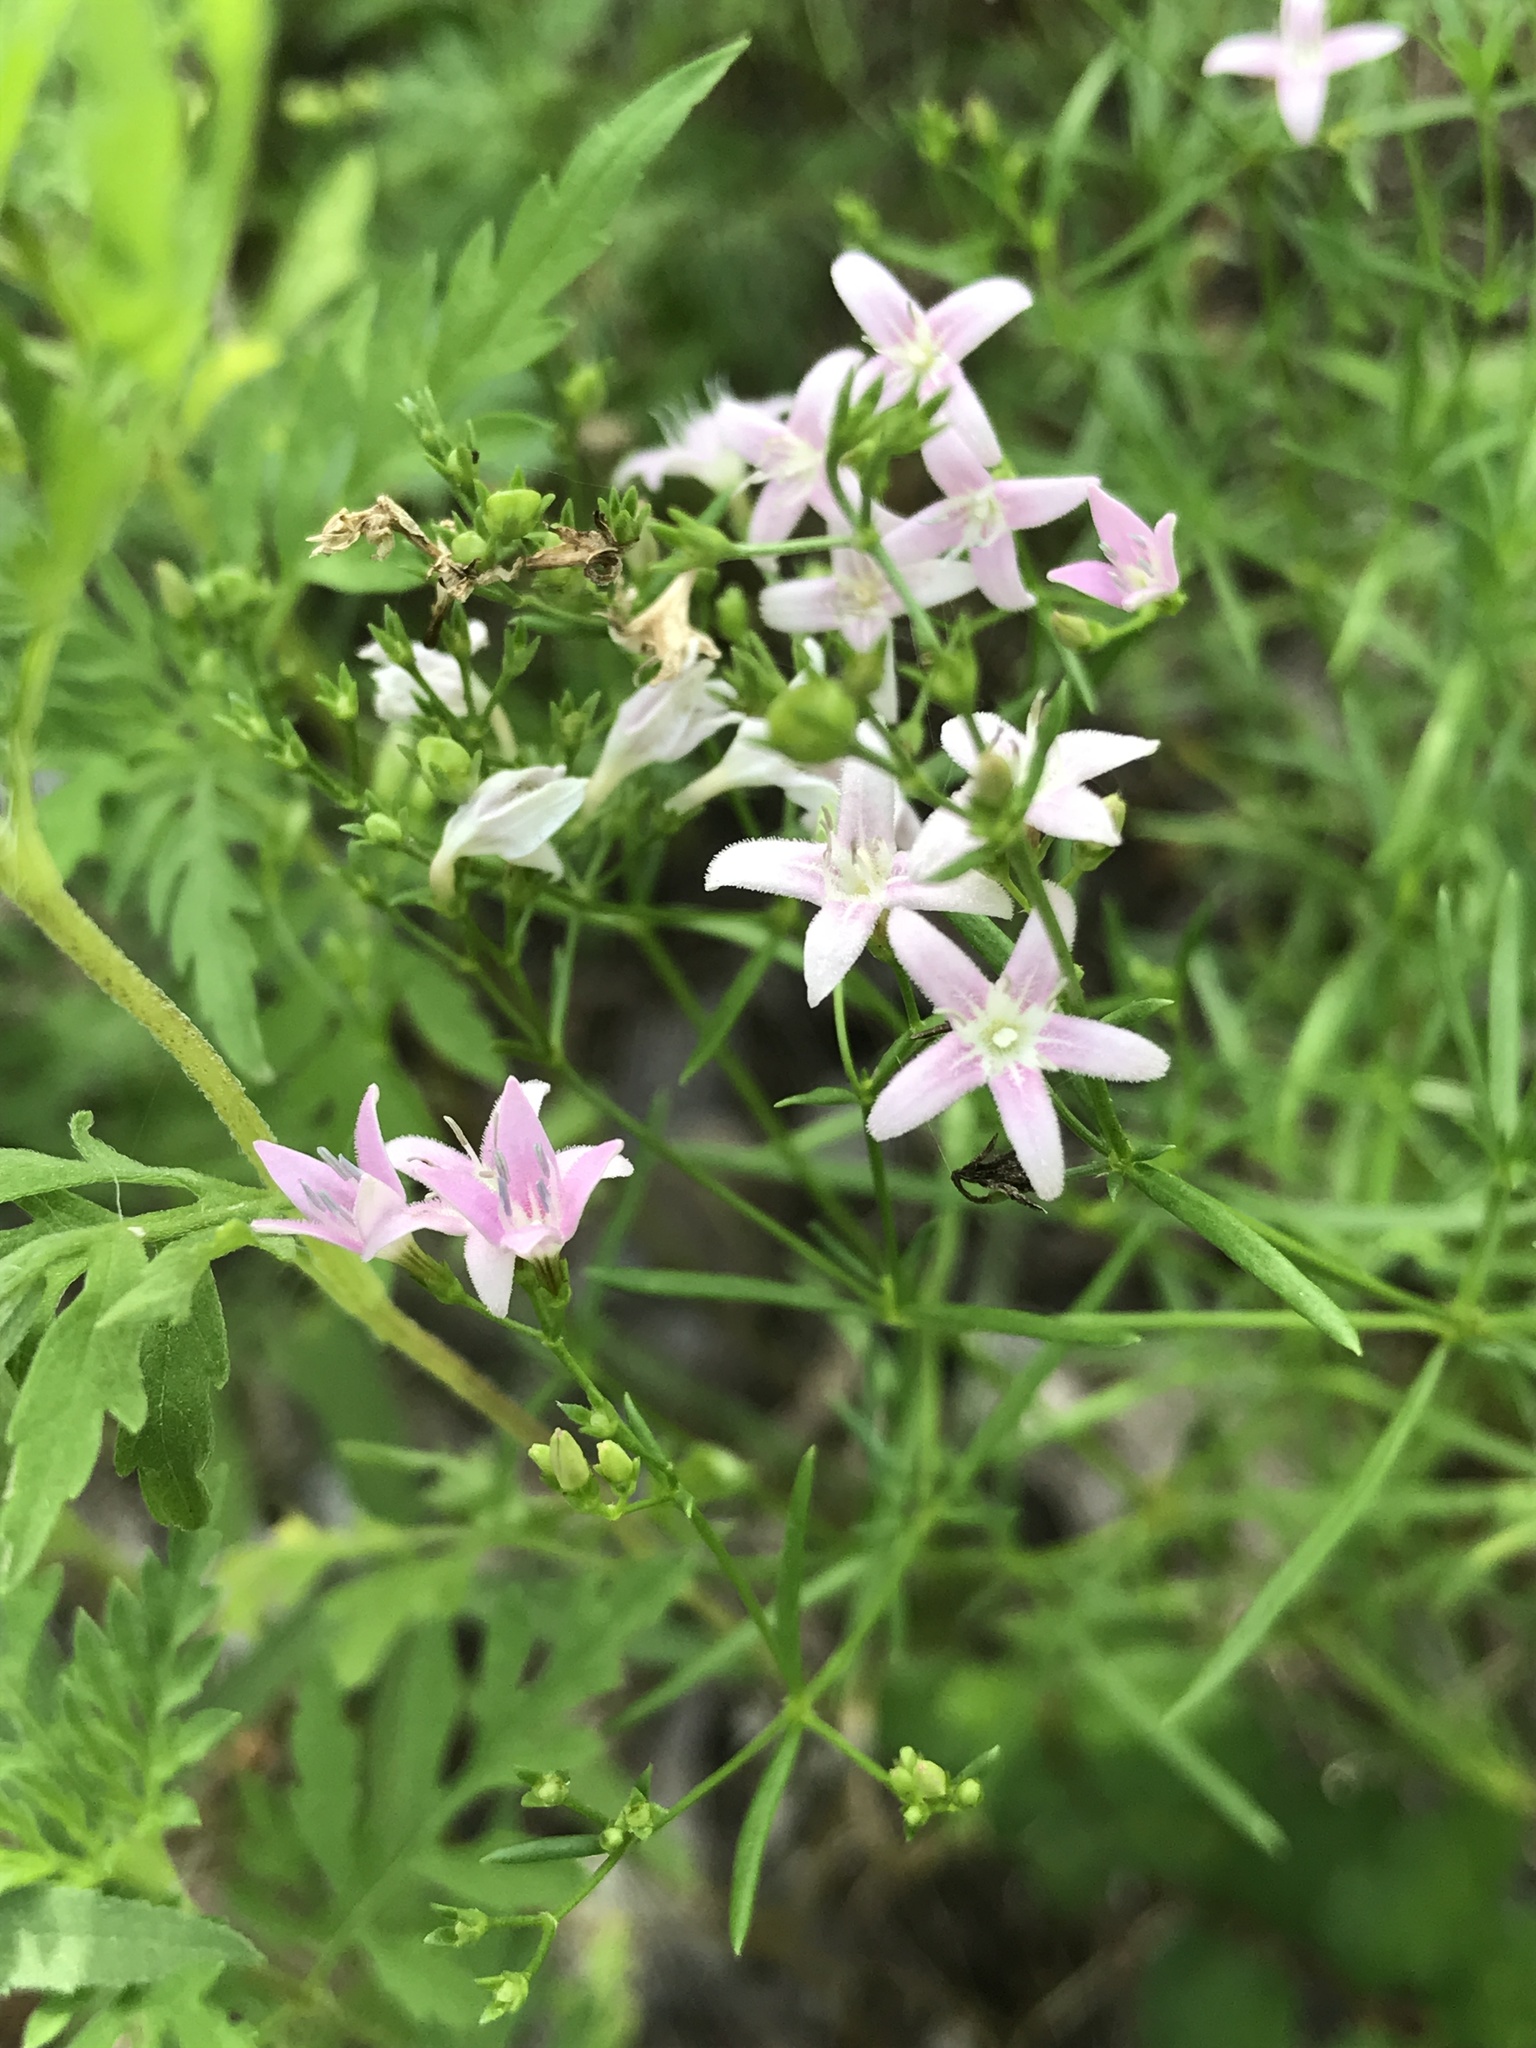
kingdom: Plantae
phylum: Tracheophyta
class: Magnoliopsida
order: Gentianales
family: Rubiaceae
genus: Stenaria
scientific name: Stenaria nigricans
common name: Diamondflowers
